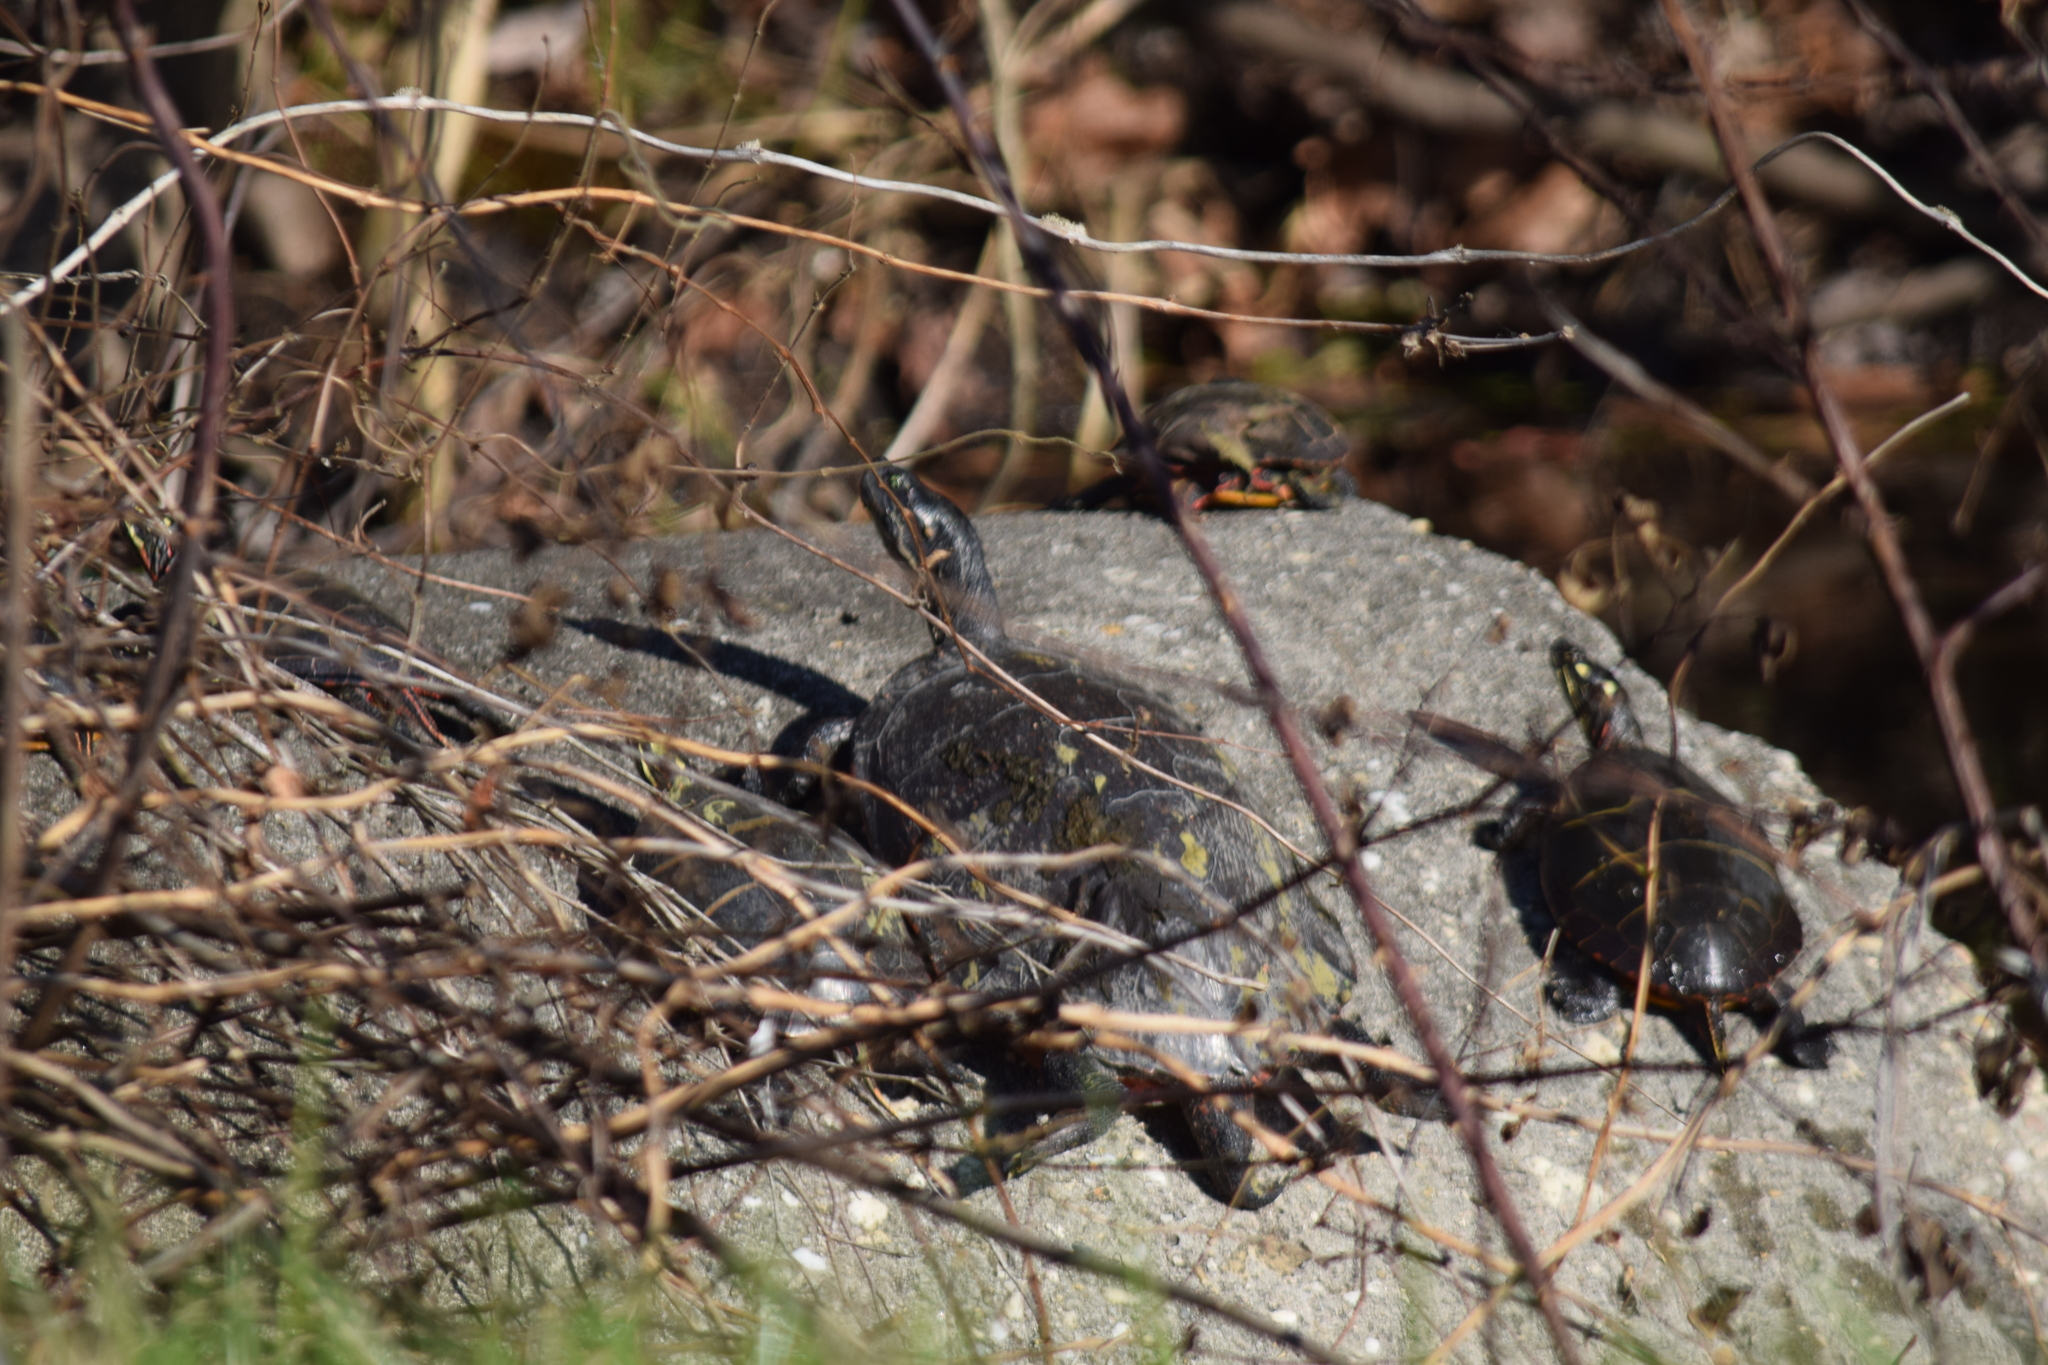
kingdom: Animalia
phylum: Chordata
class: Testudines
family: Emydidae
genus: Chrysemys
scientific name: Chrysemys picta
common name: Painted turtle
